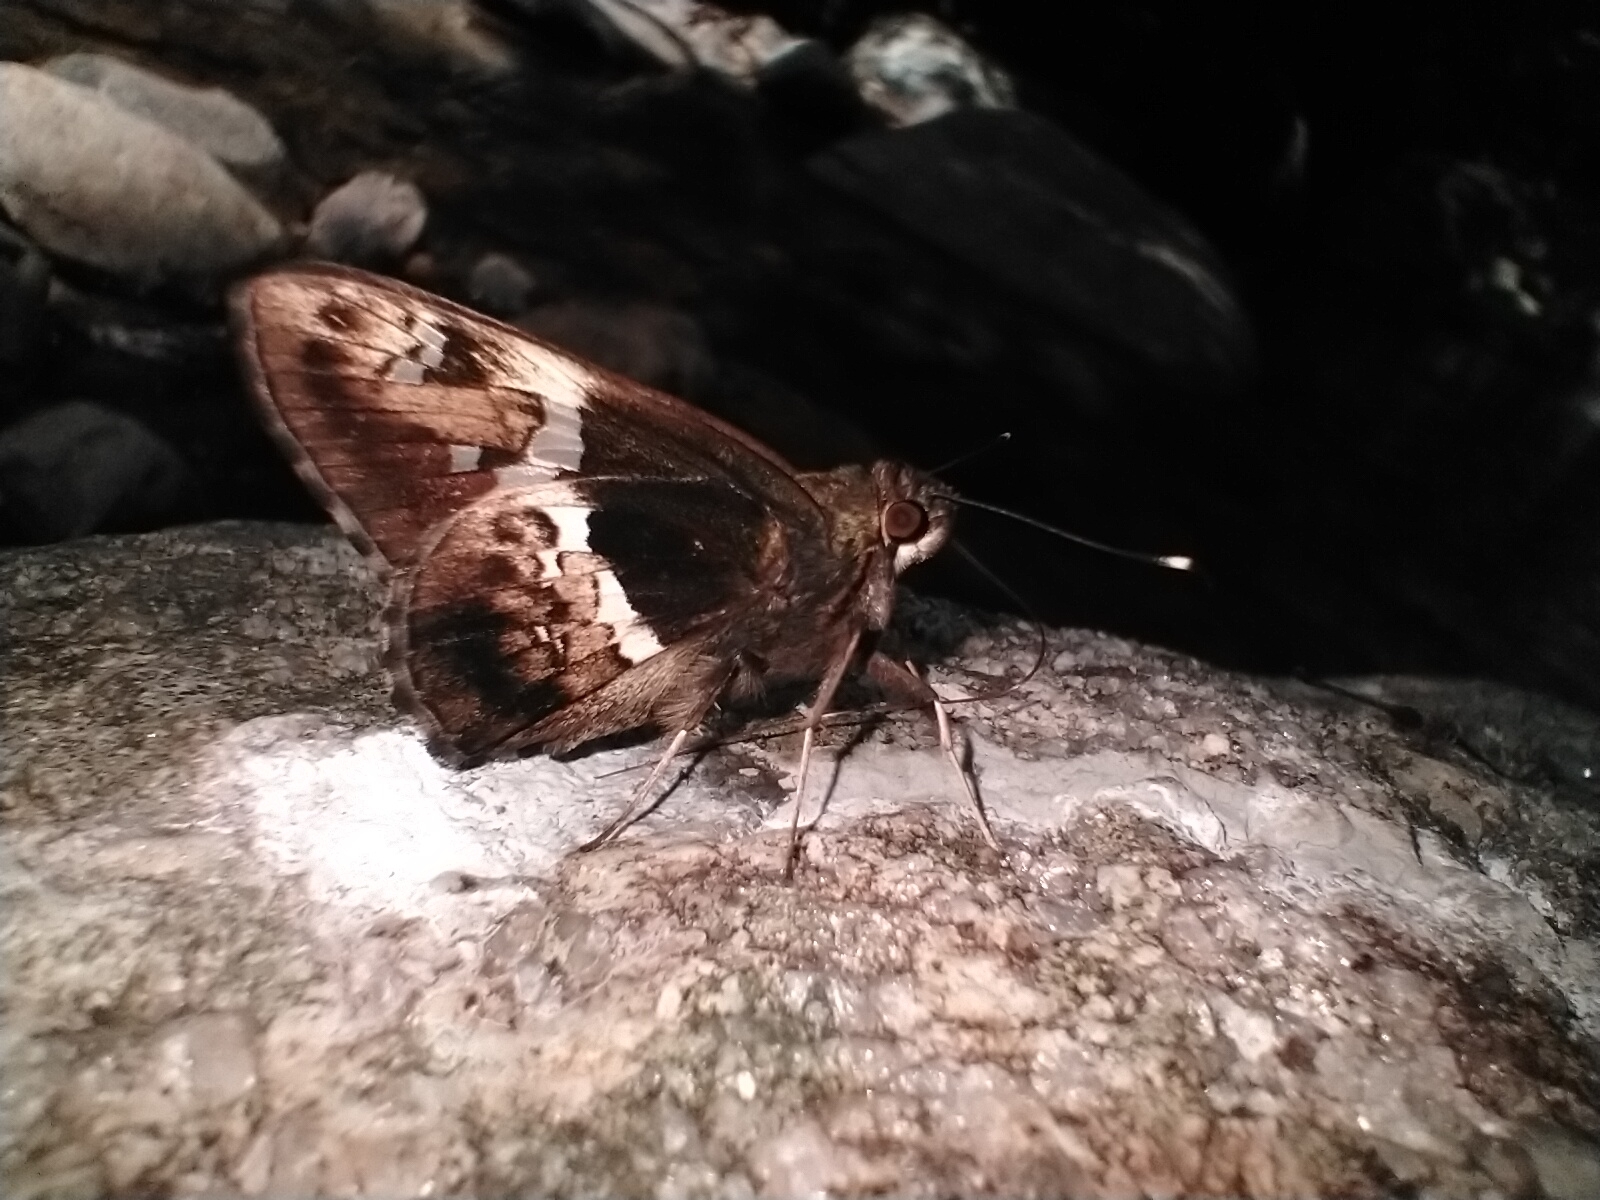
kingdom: Animalia
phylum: Arthropoda
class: Insecta
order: Lepidoptera
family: Hesperiidae
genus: Hyarotis
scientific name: Hyarotis adrastus
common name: Tree flitter
